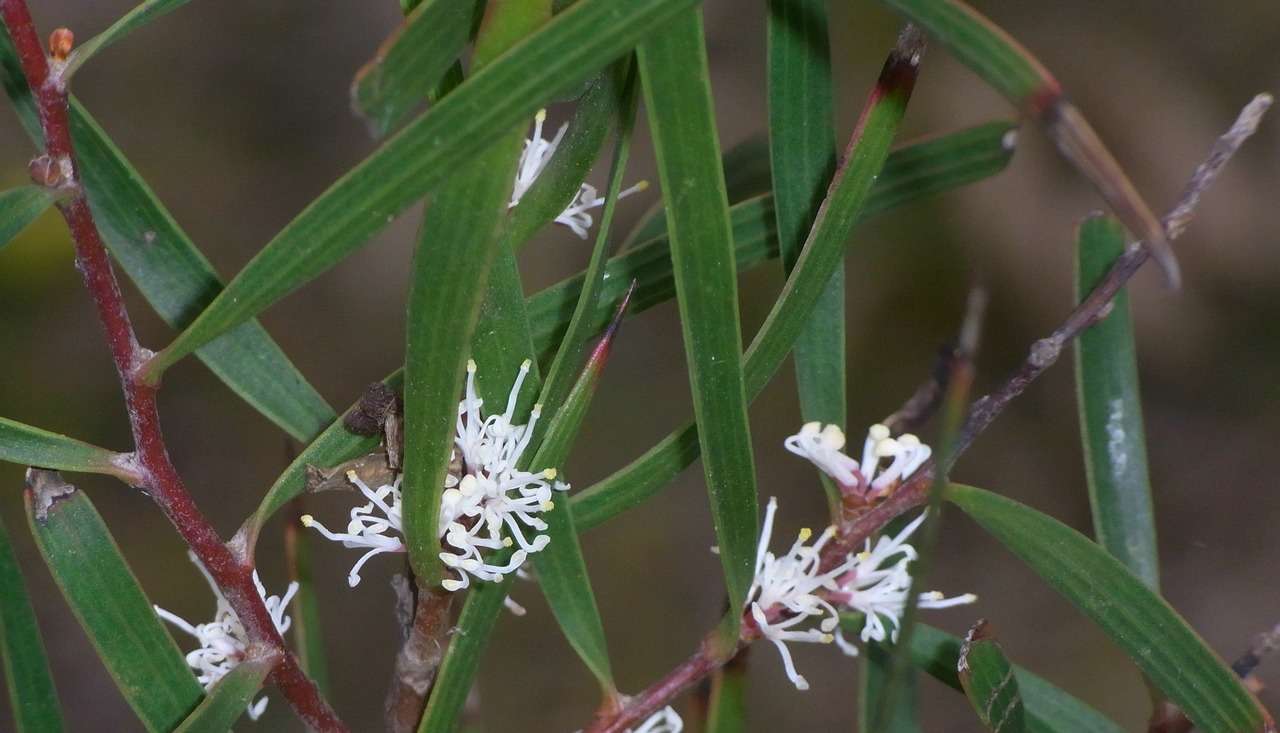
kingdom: Plantae
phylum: Tracheophyta
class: Magnoliopsida
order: Proteales
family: Proteaceae
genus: Hakea
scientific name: Hakea ulicina
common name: Furze hakea
